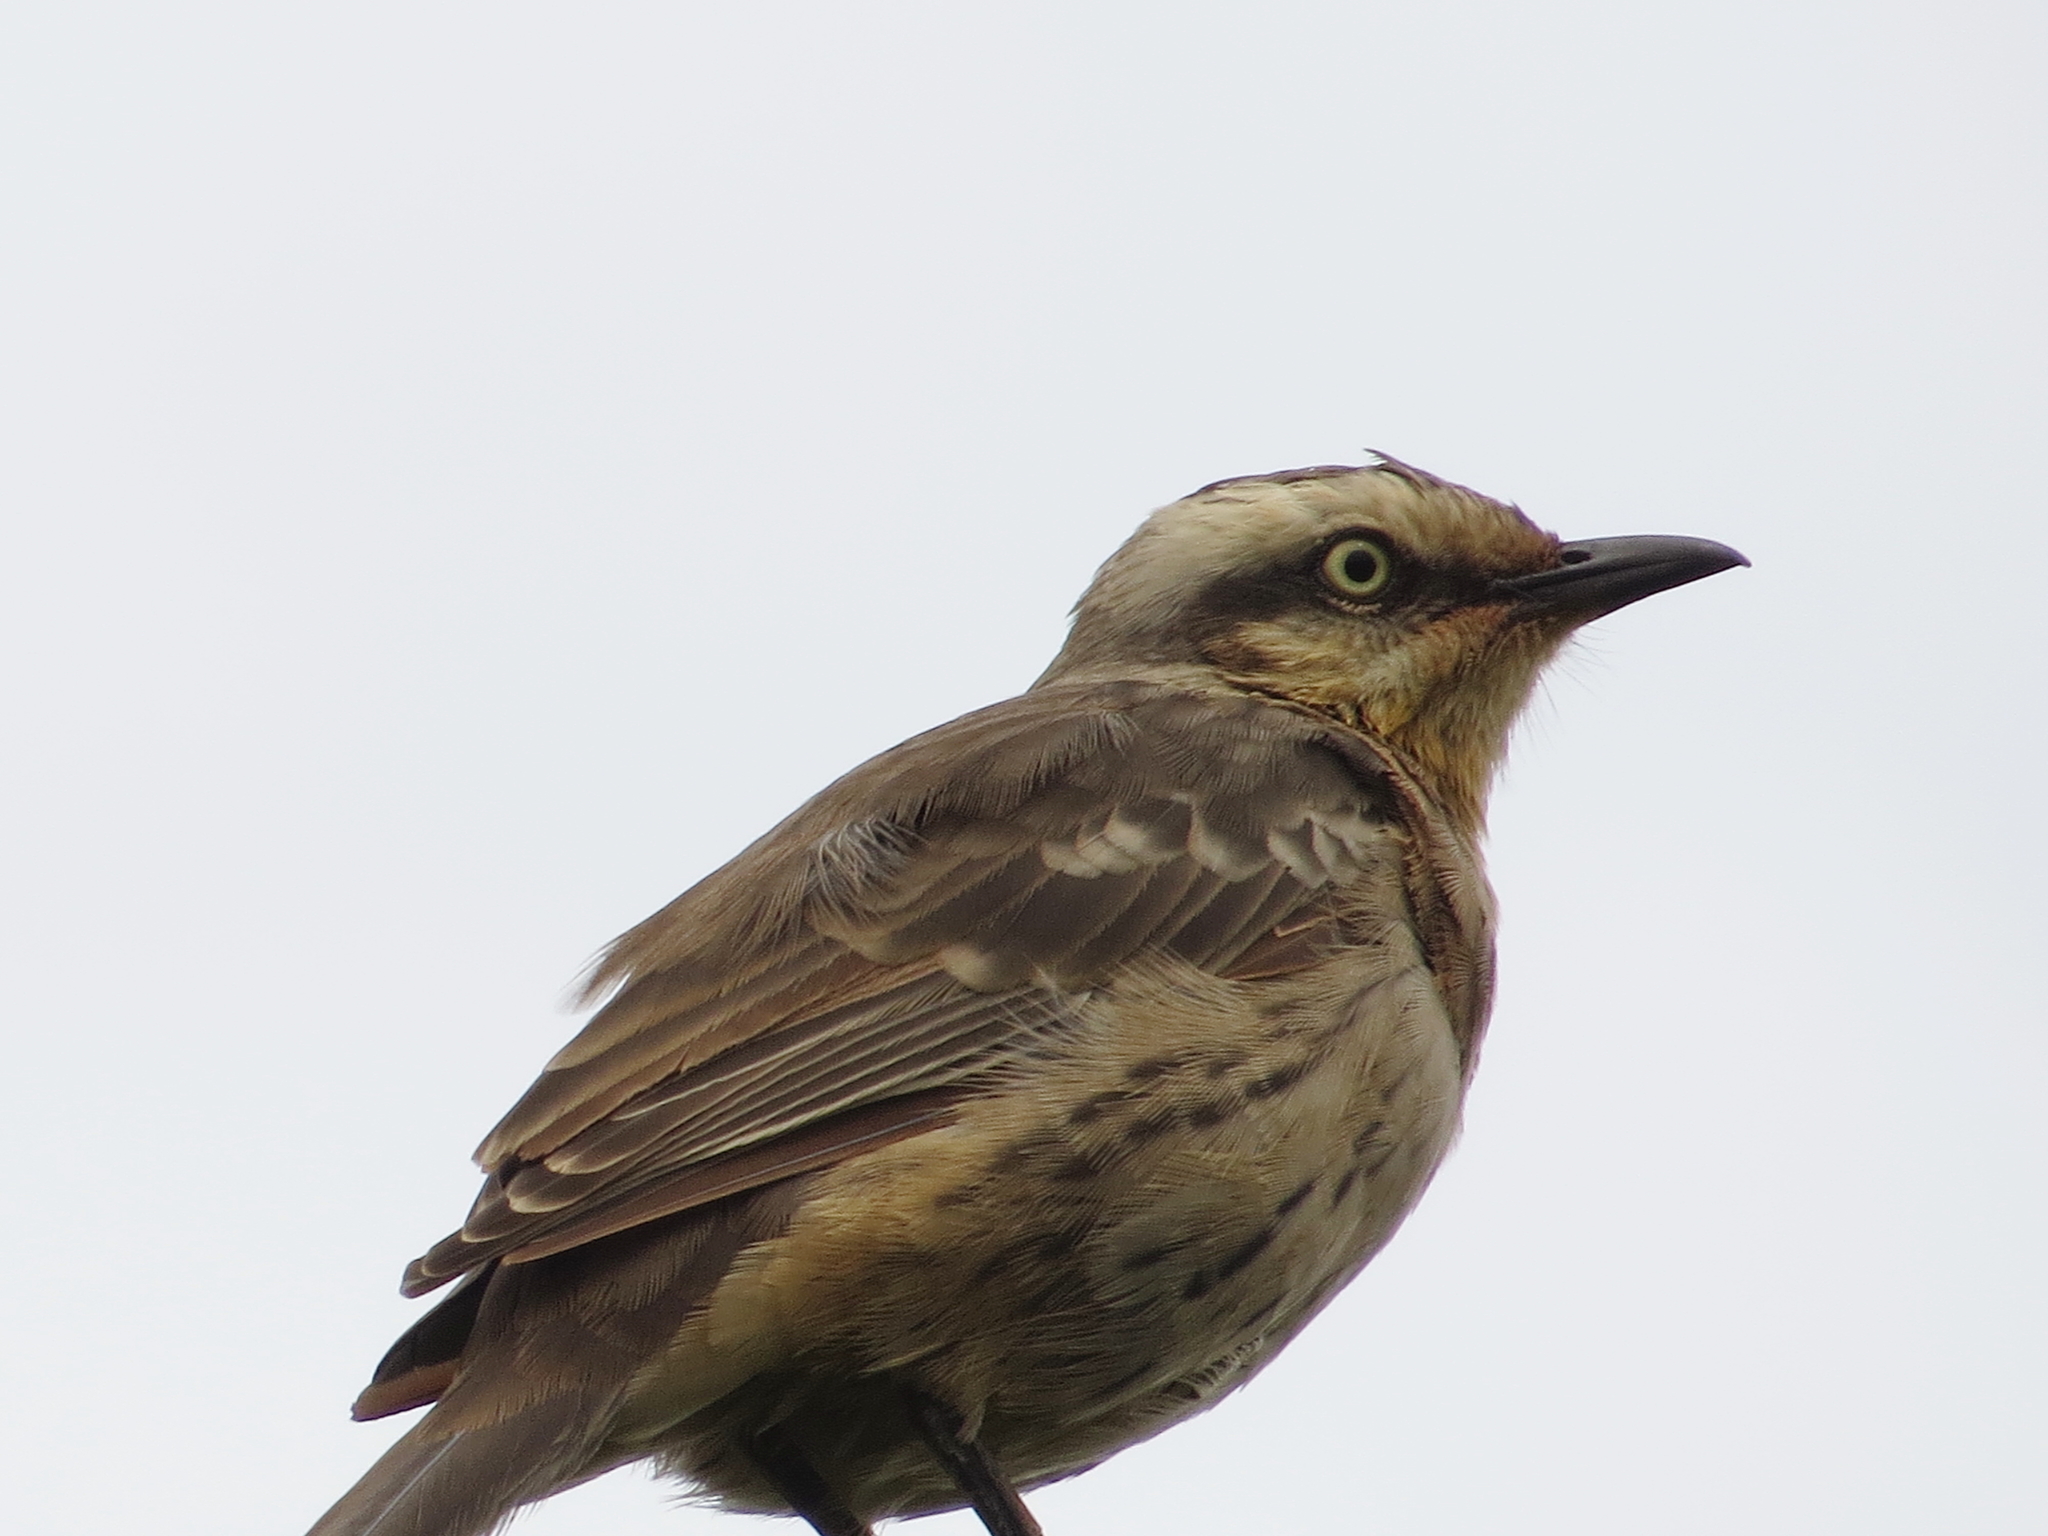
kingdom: Animalia
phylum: Chordata
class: Aves
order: Passeriformes
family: Mimidae
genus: Mimus
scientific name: Mimus saturninus
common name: Chalk-browed mockingbird
